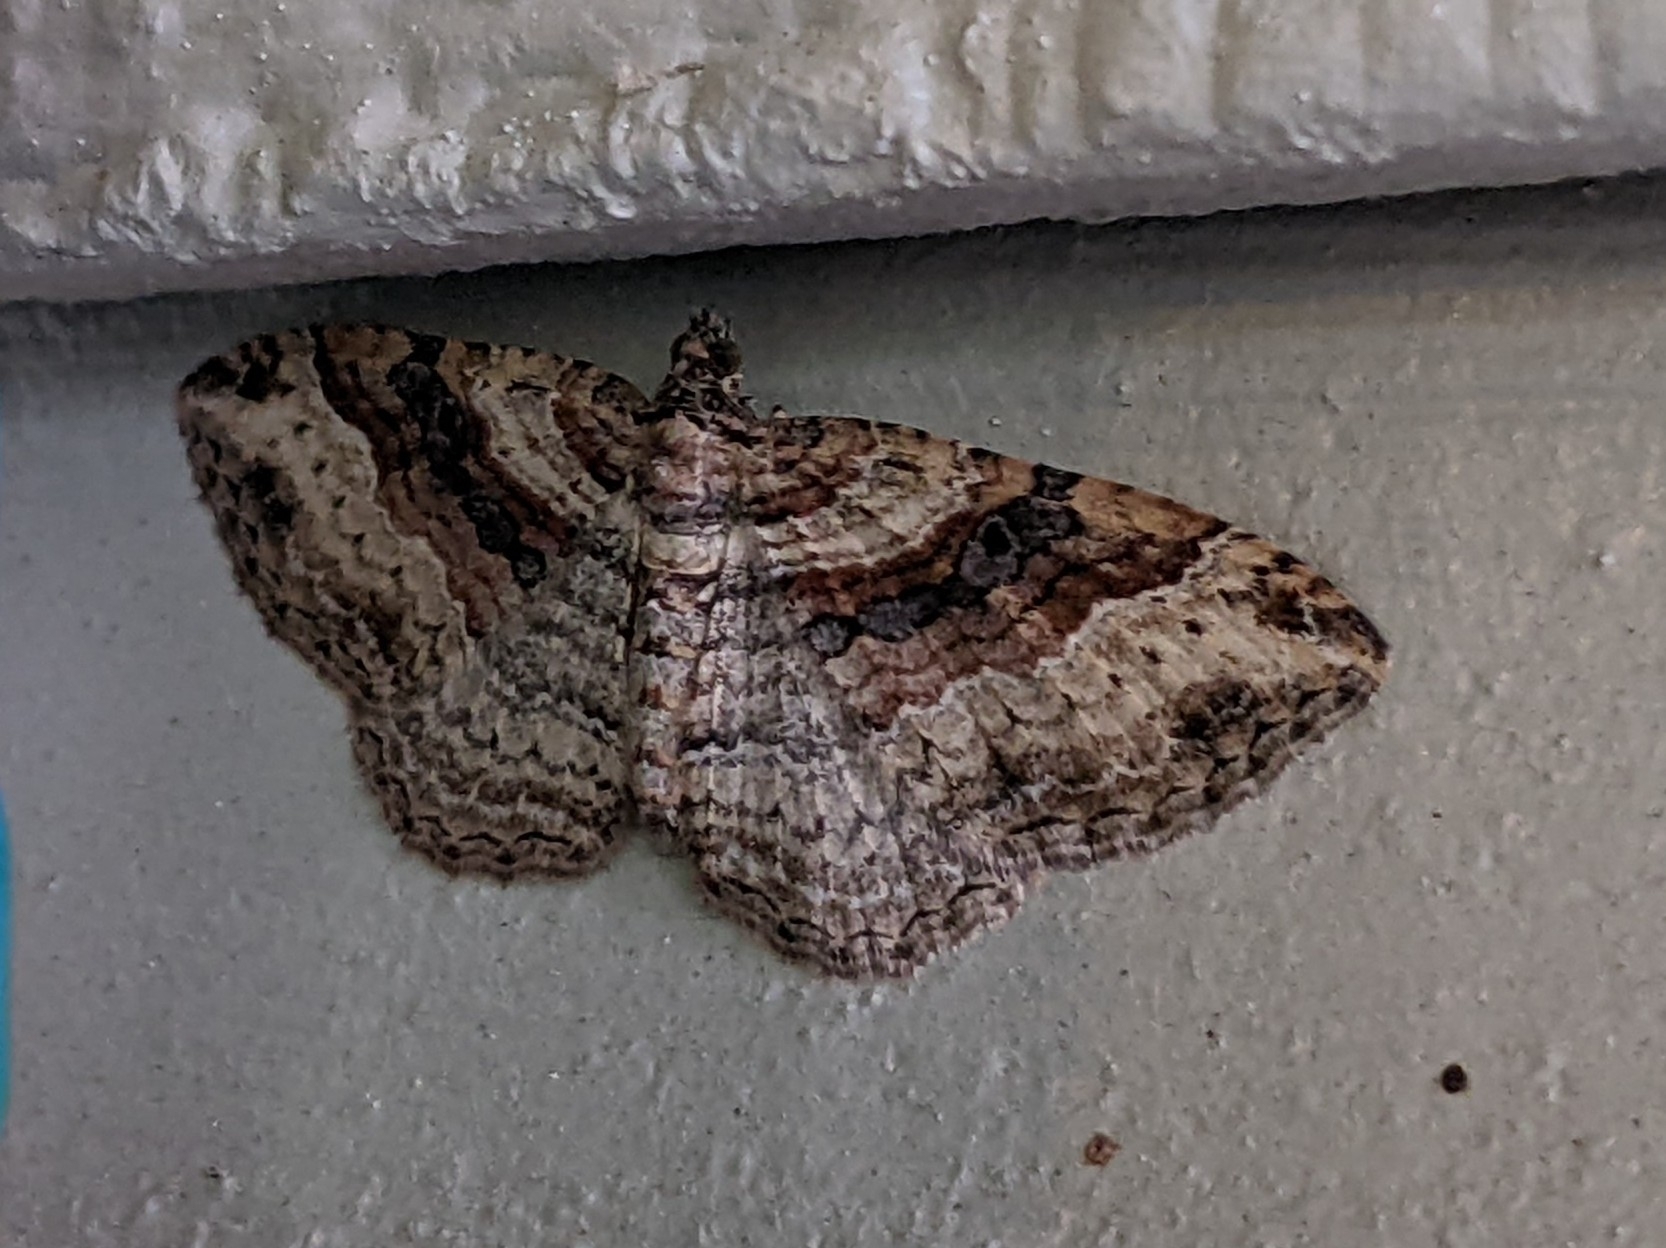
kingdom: Animalia
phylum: Arthropoda
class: Insecta
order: Lepidoptera
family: Geometridae
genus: Costaconvexa
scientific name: Costaconvexa centrostrigaria
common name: Bent-line carpet
